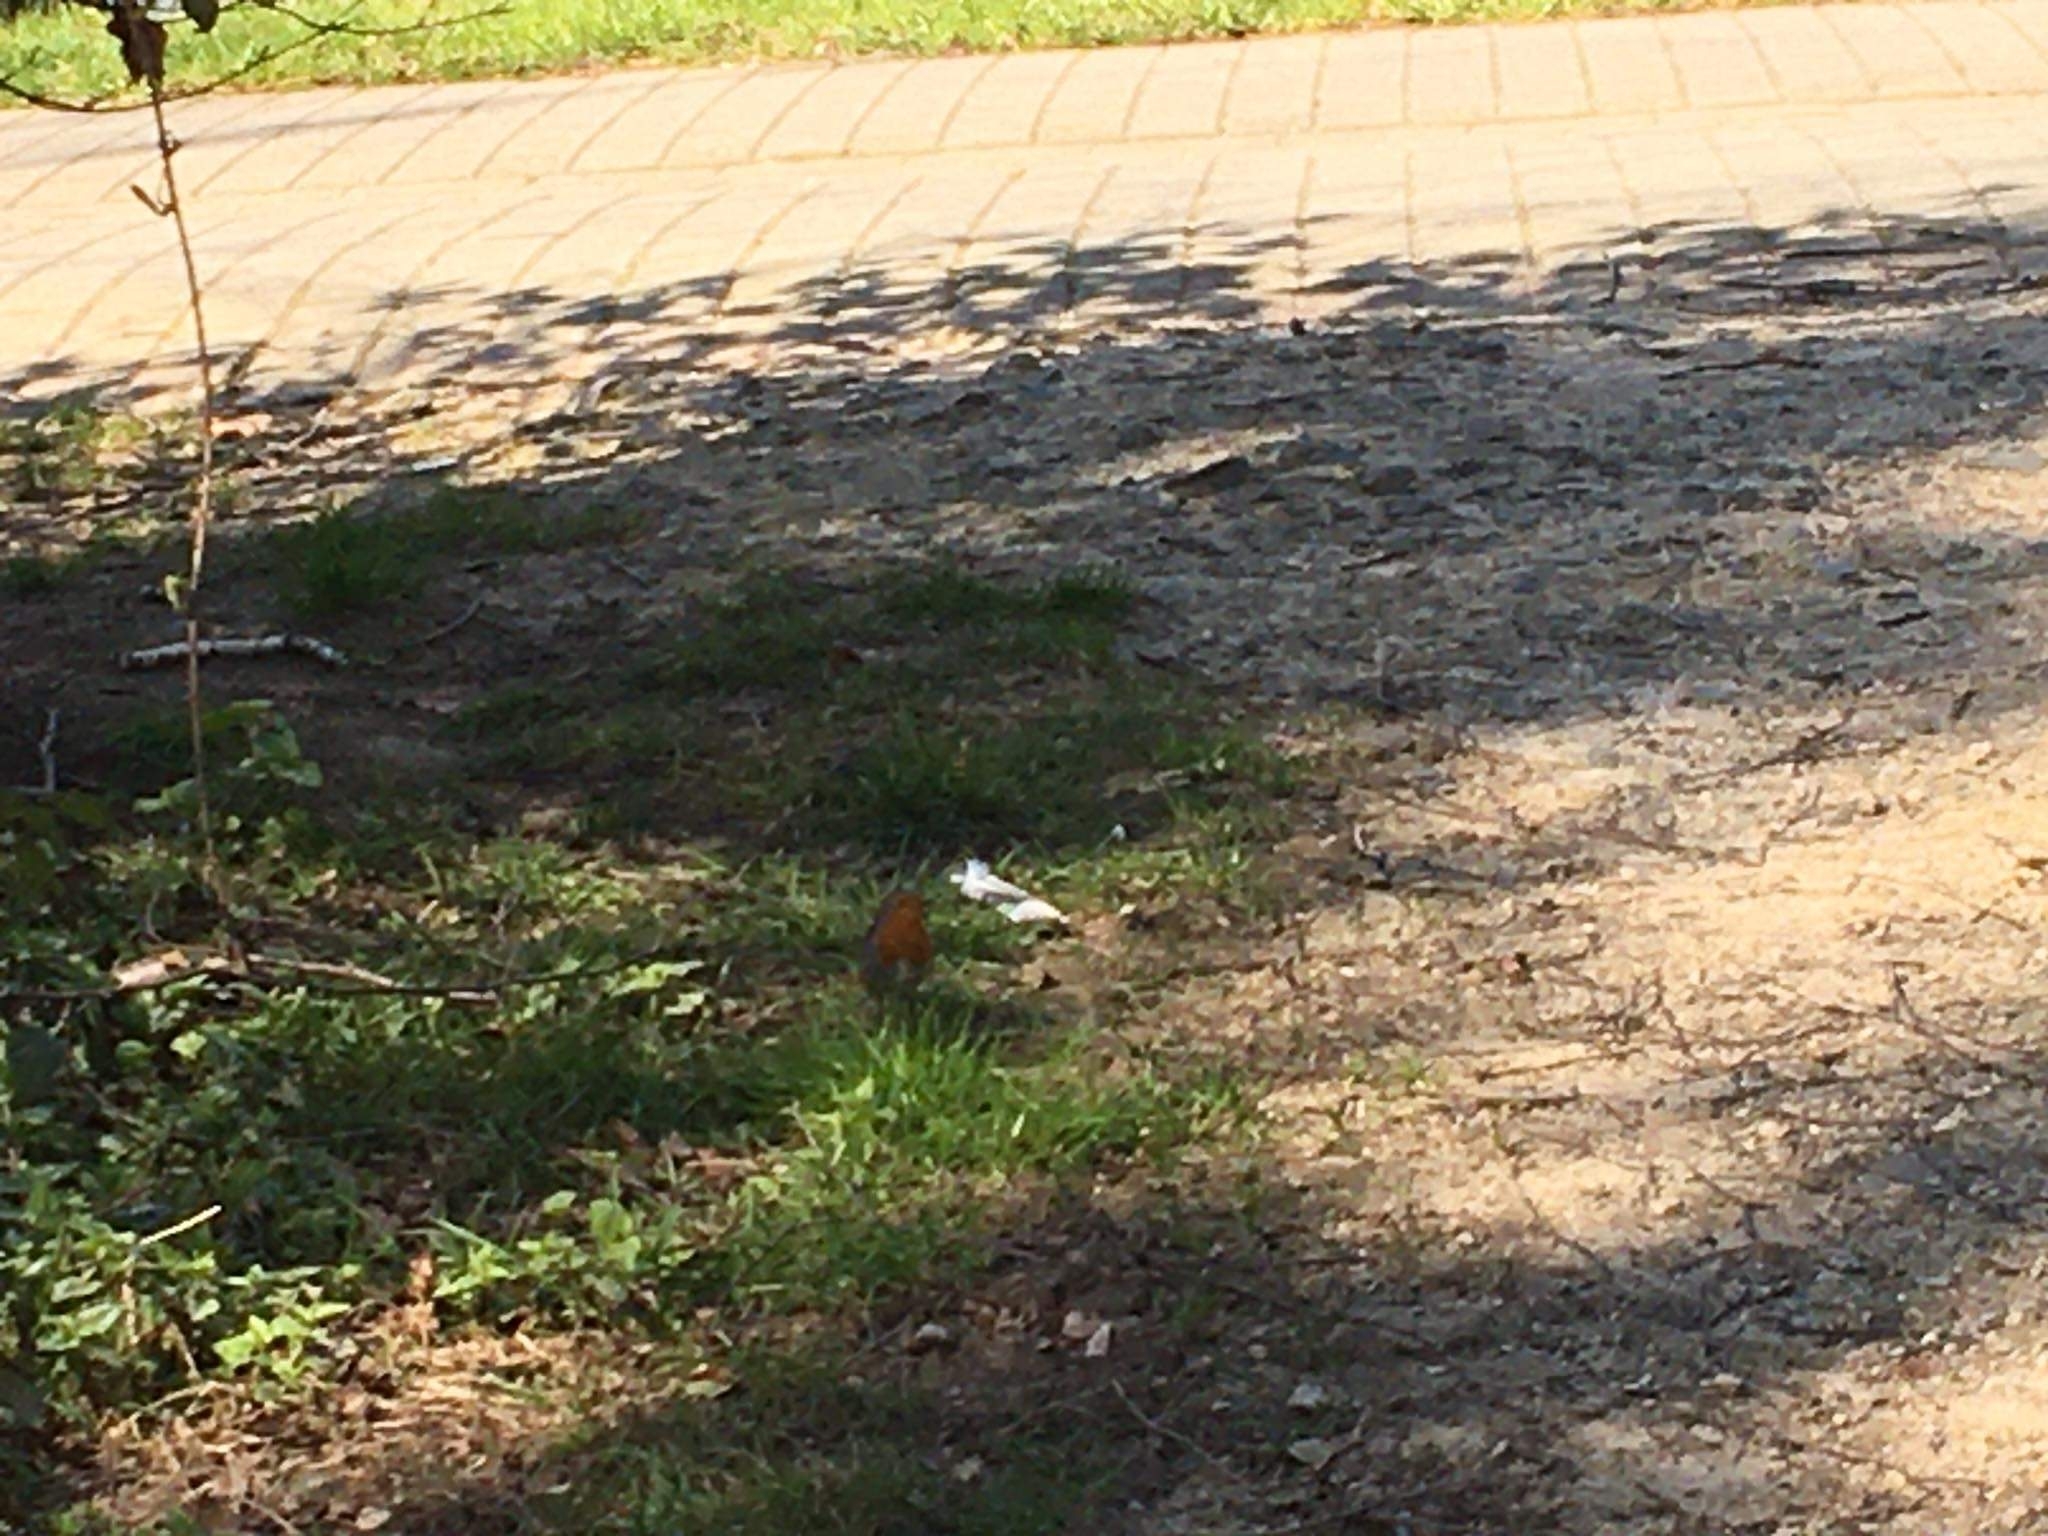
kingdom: Animalia
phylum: Chordata
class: Aves
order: Passeriformes
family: Muscicapidae
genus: Erithacus
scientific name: Erithacus rubecula
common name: European robin
